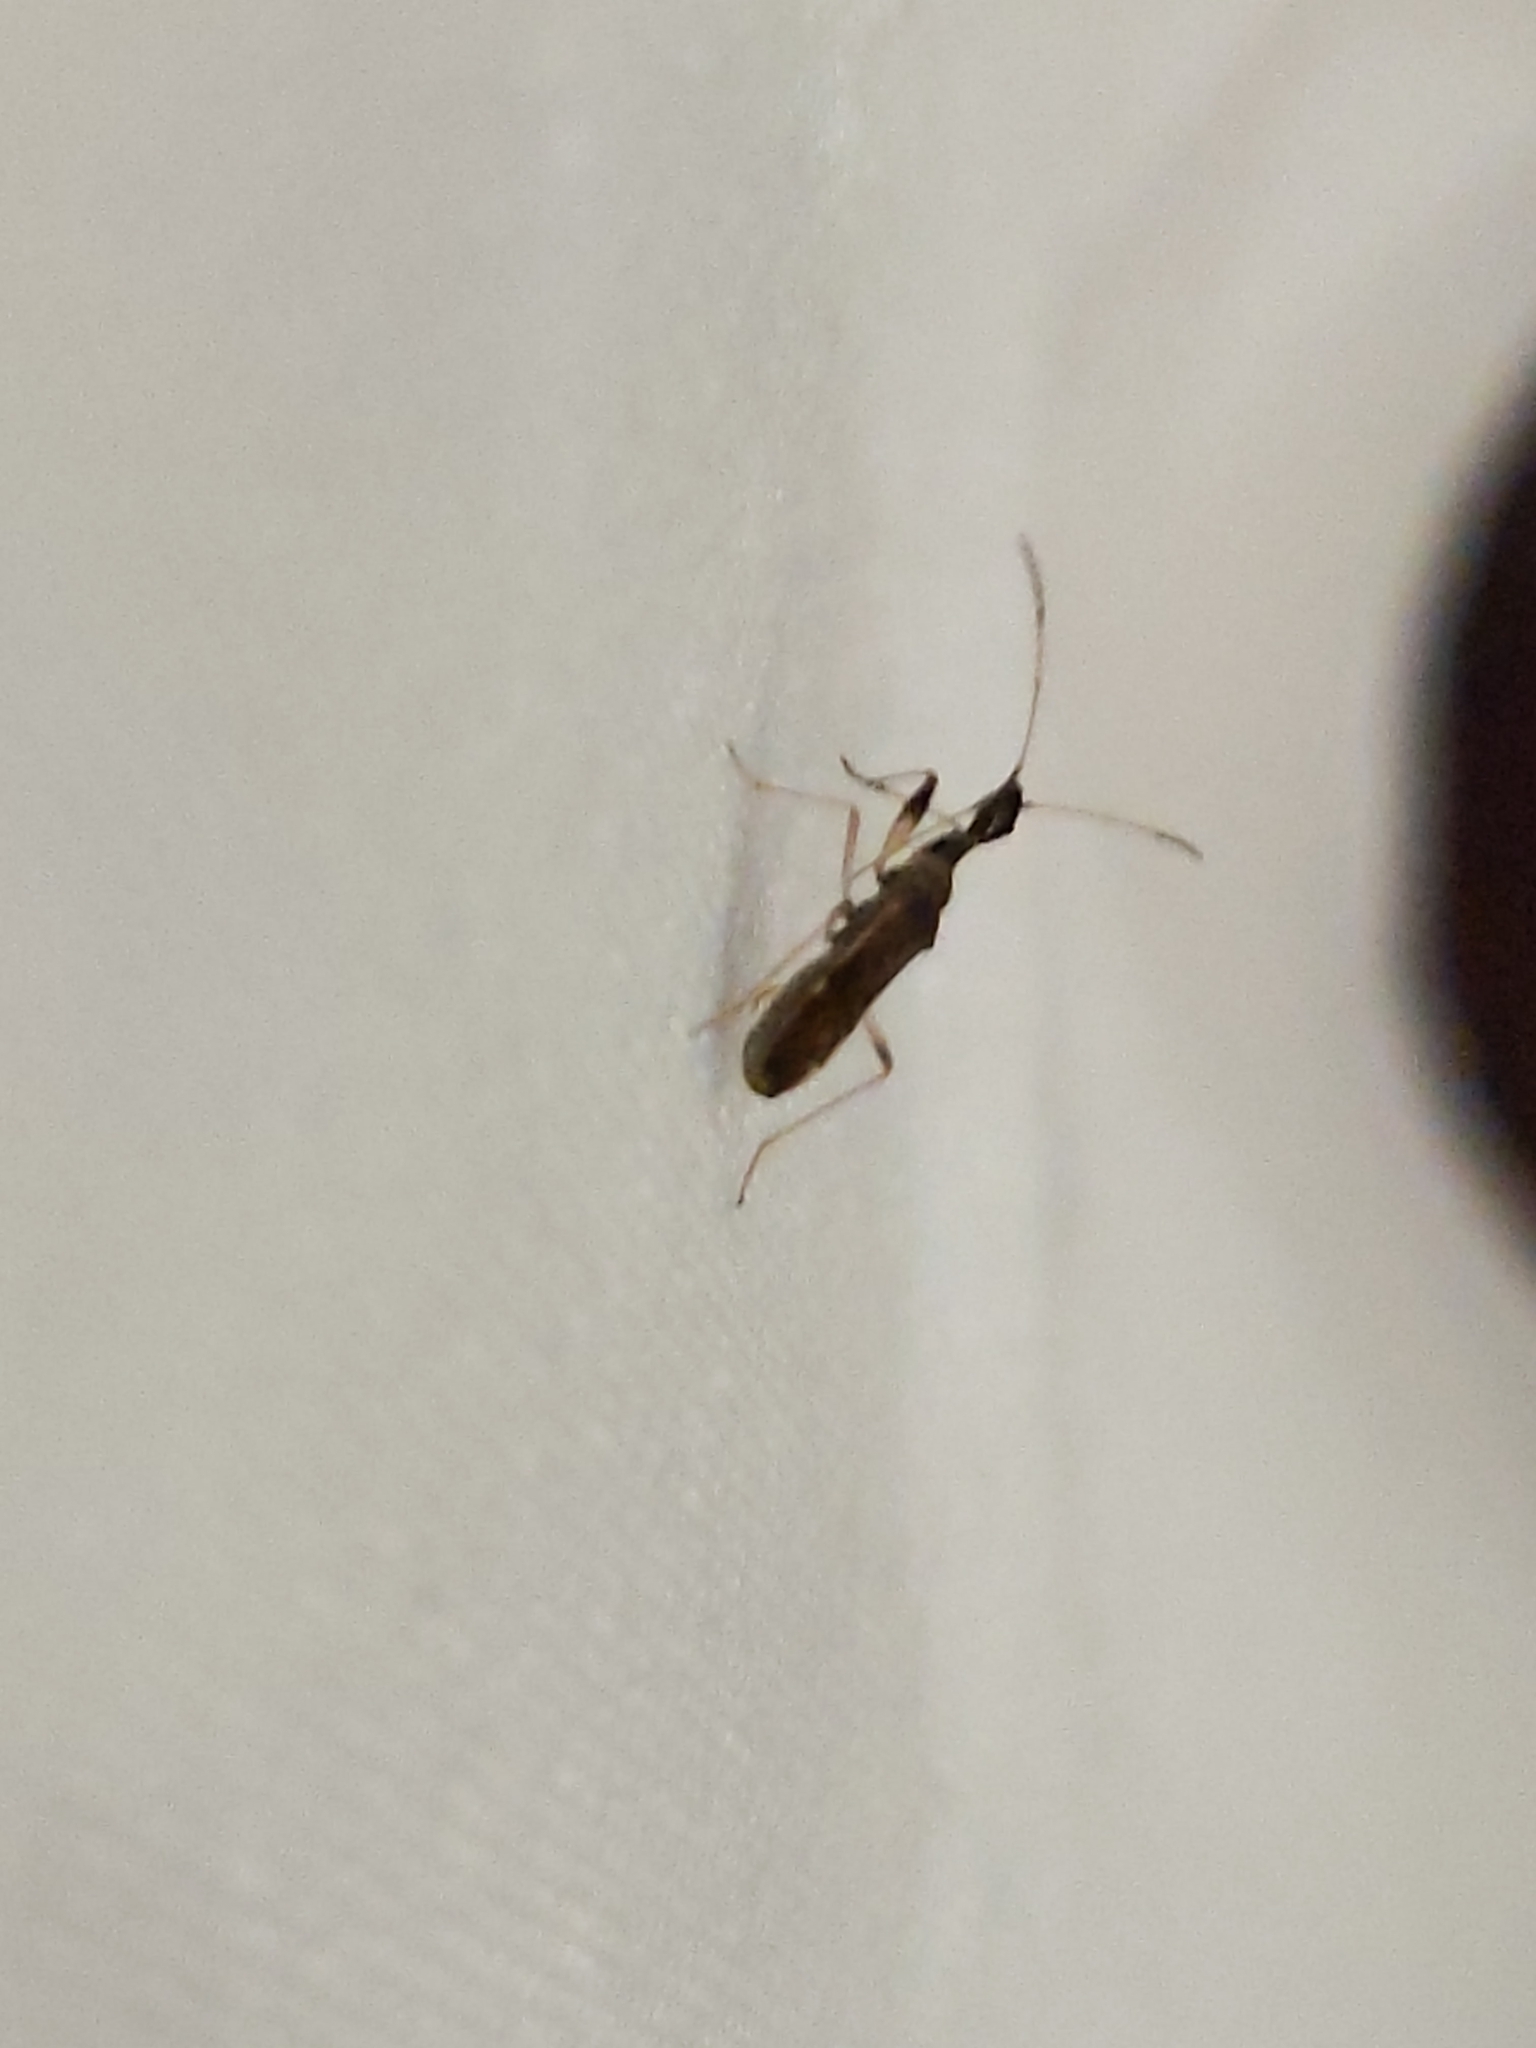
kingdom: Animalia
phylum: Arthropoda
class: Insecta
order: Hemiptera
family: Rhyparochromidae
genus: Myodocha
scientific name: Myodocha serripes
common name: Long-necked seed bug
